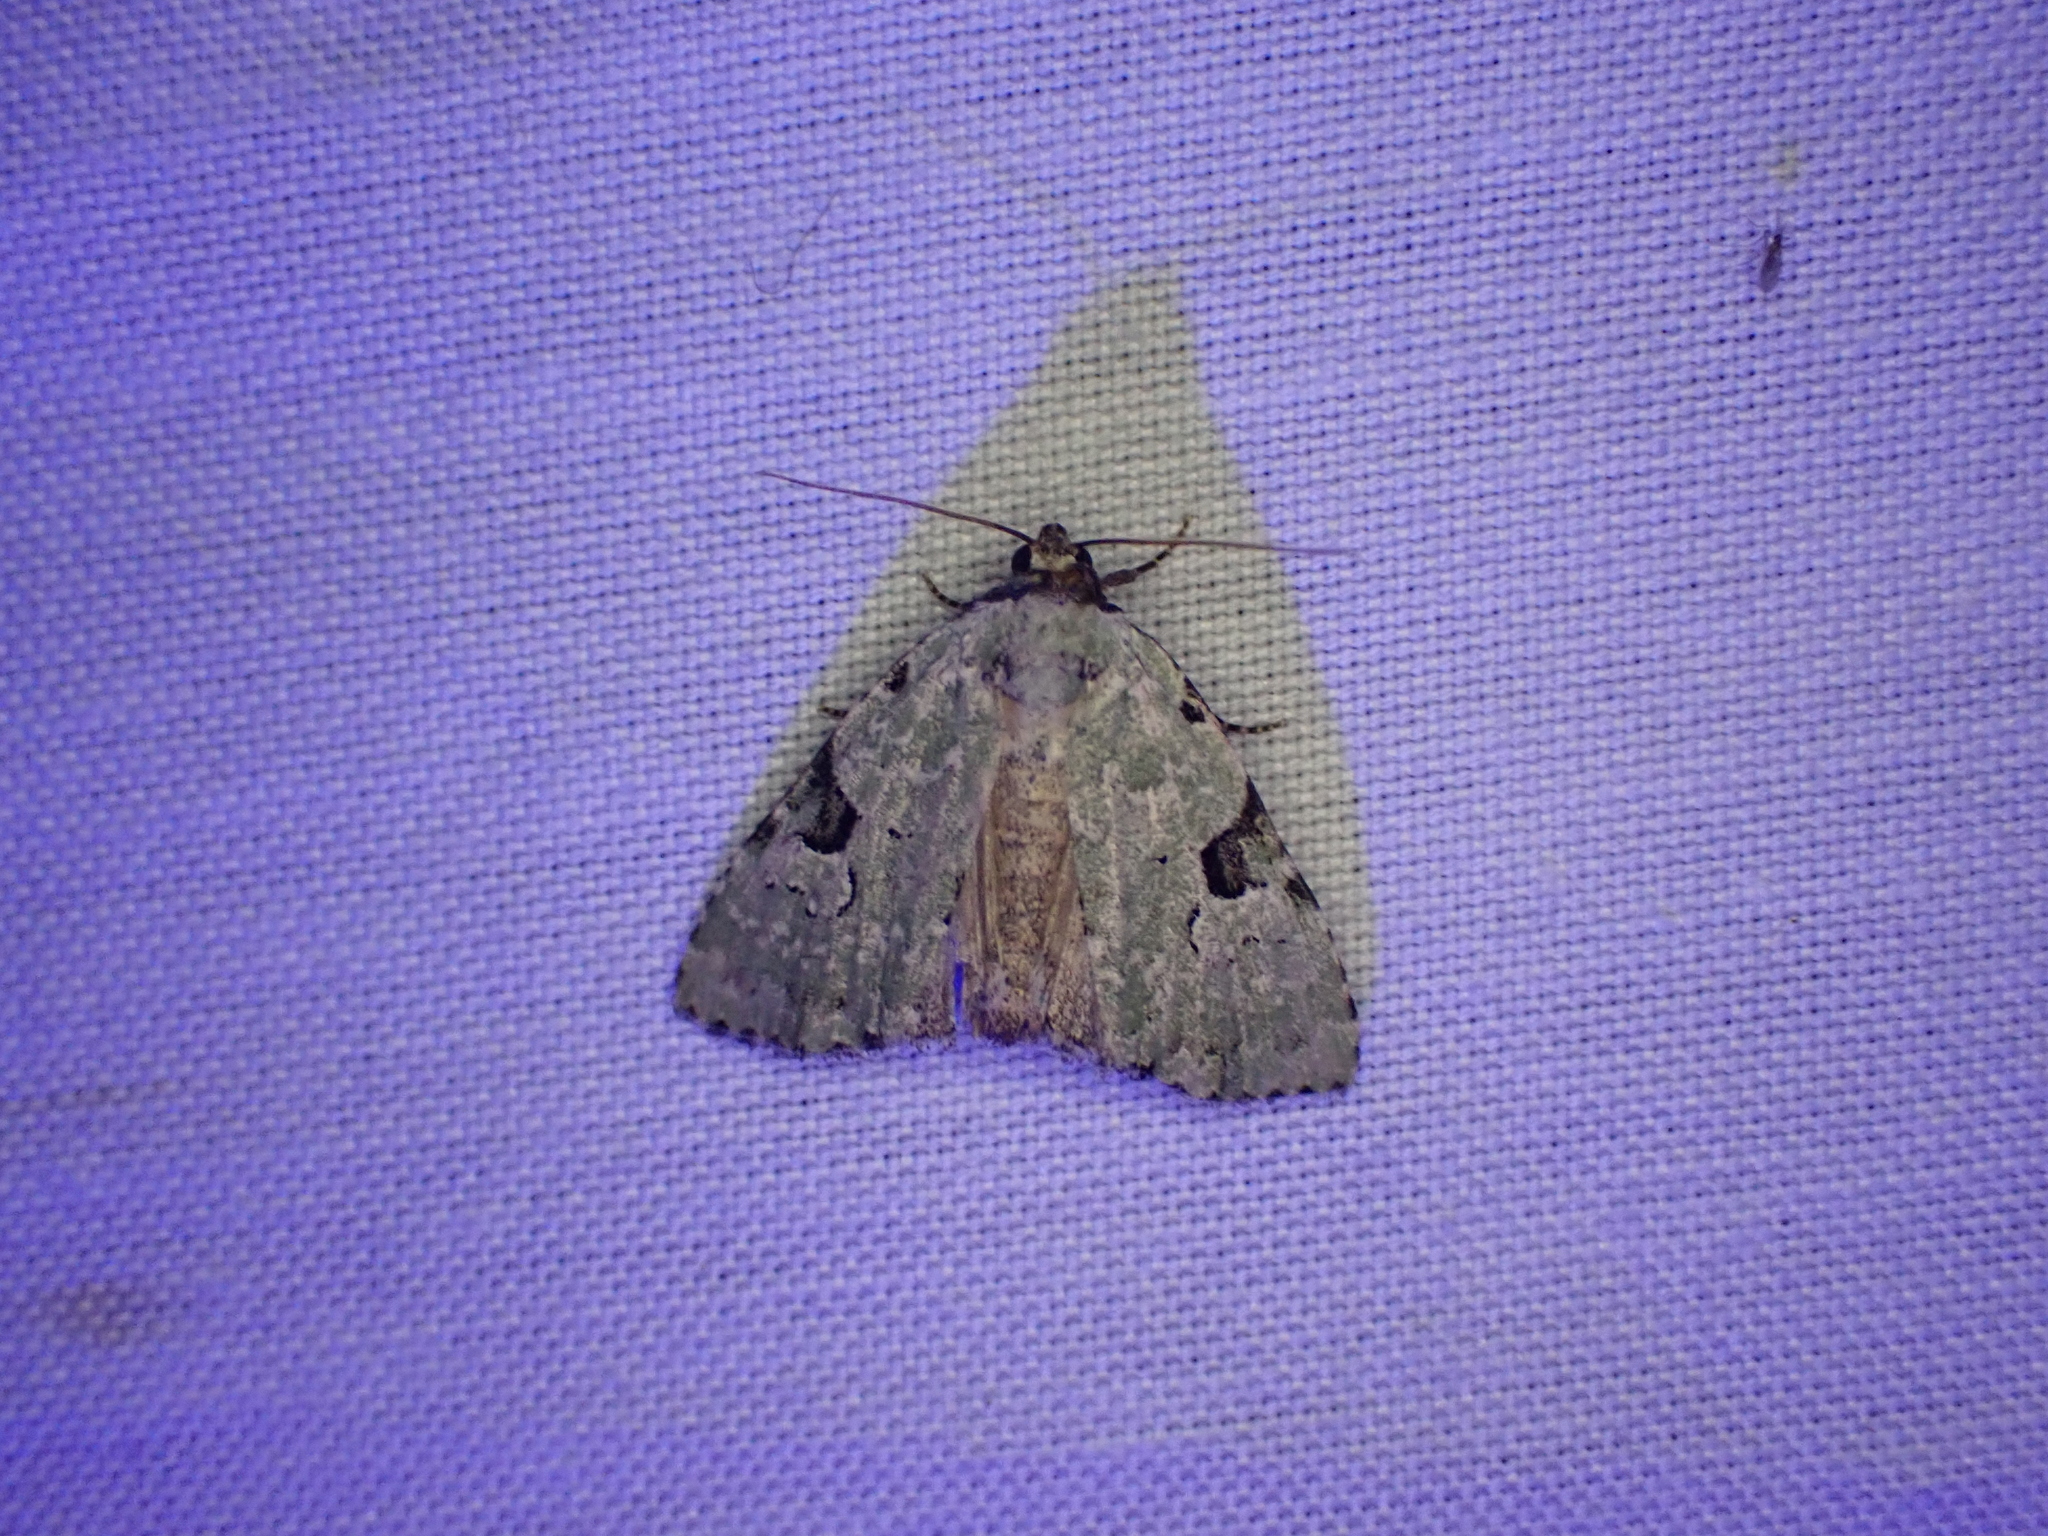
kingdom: Animalia
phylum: Arthropoda
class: Insecta
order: Lepidoptera
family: Noctuidae
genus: Leuconycta
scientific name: Leuconycta diphteroides
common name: Green leuconycta moth
